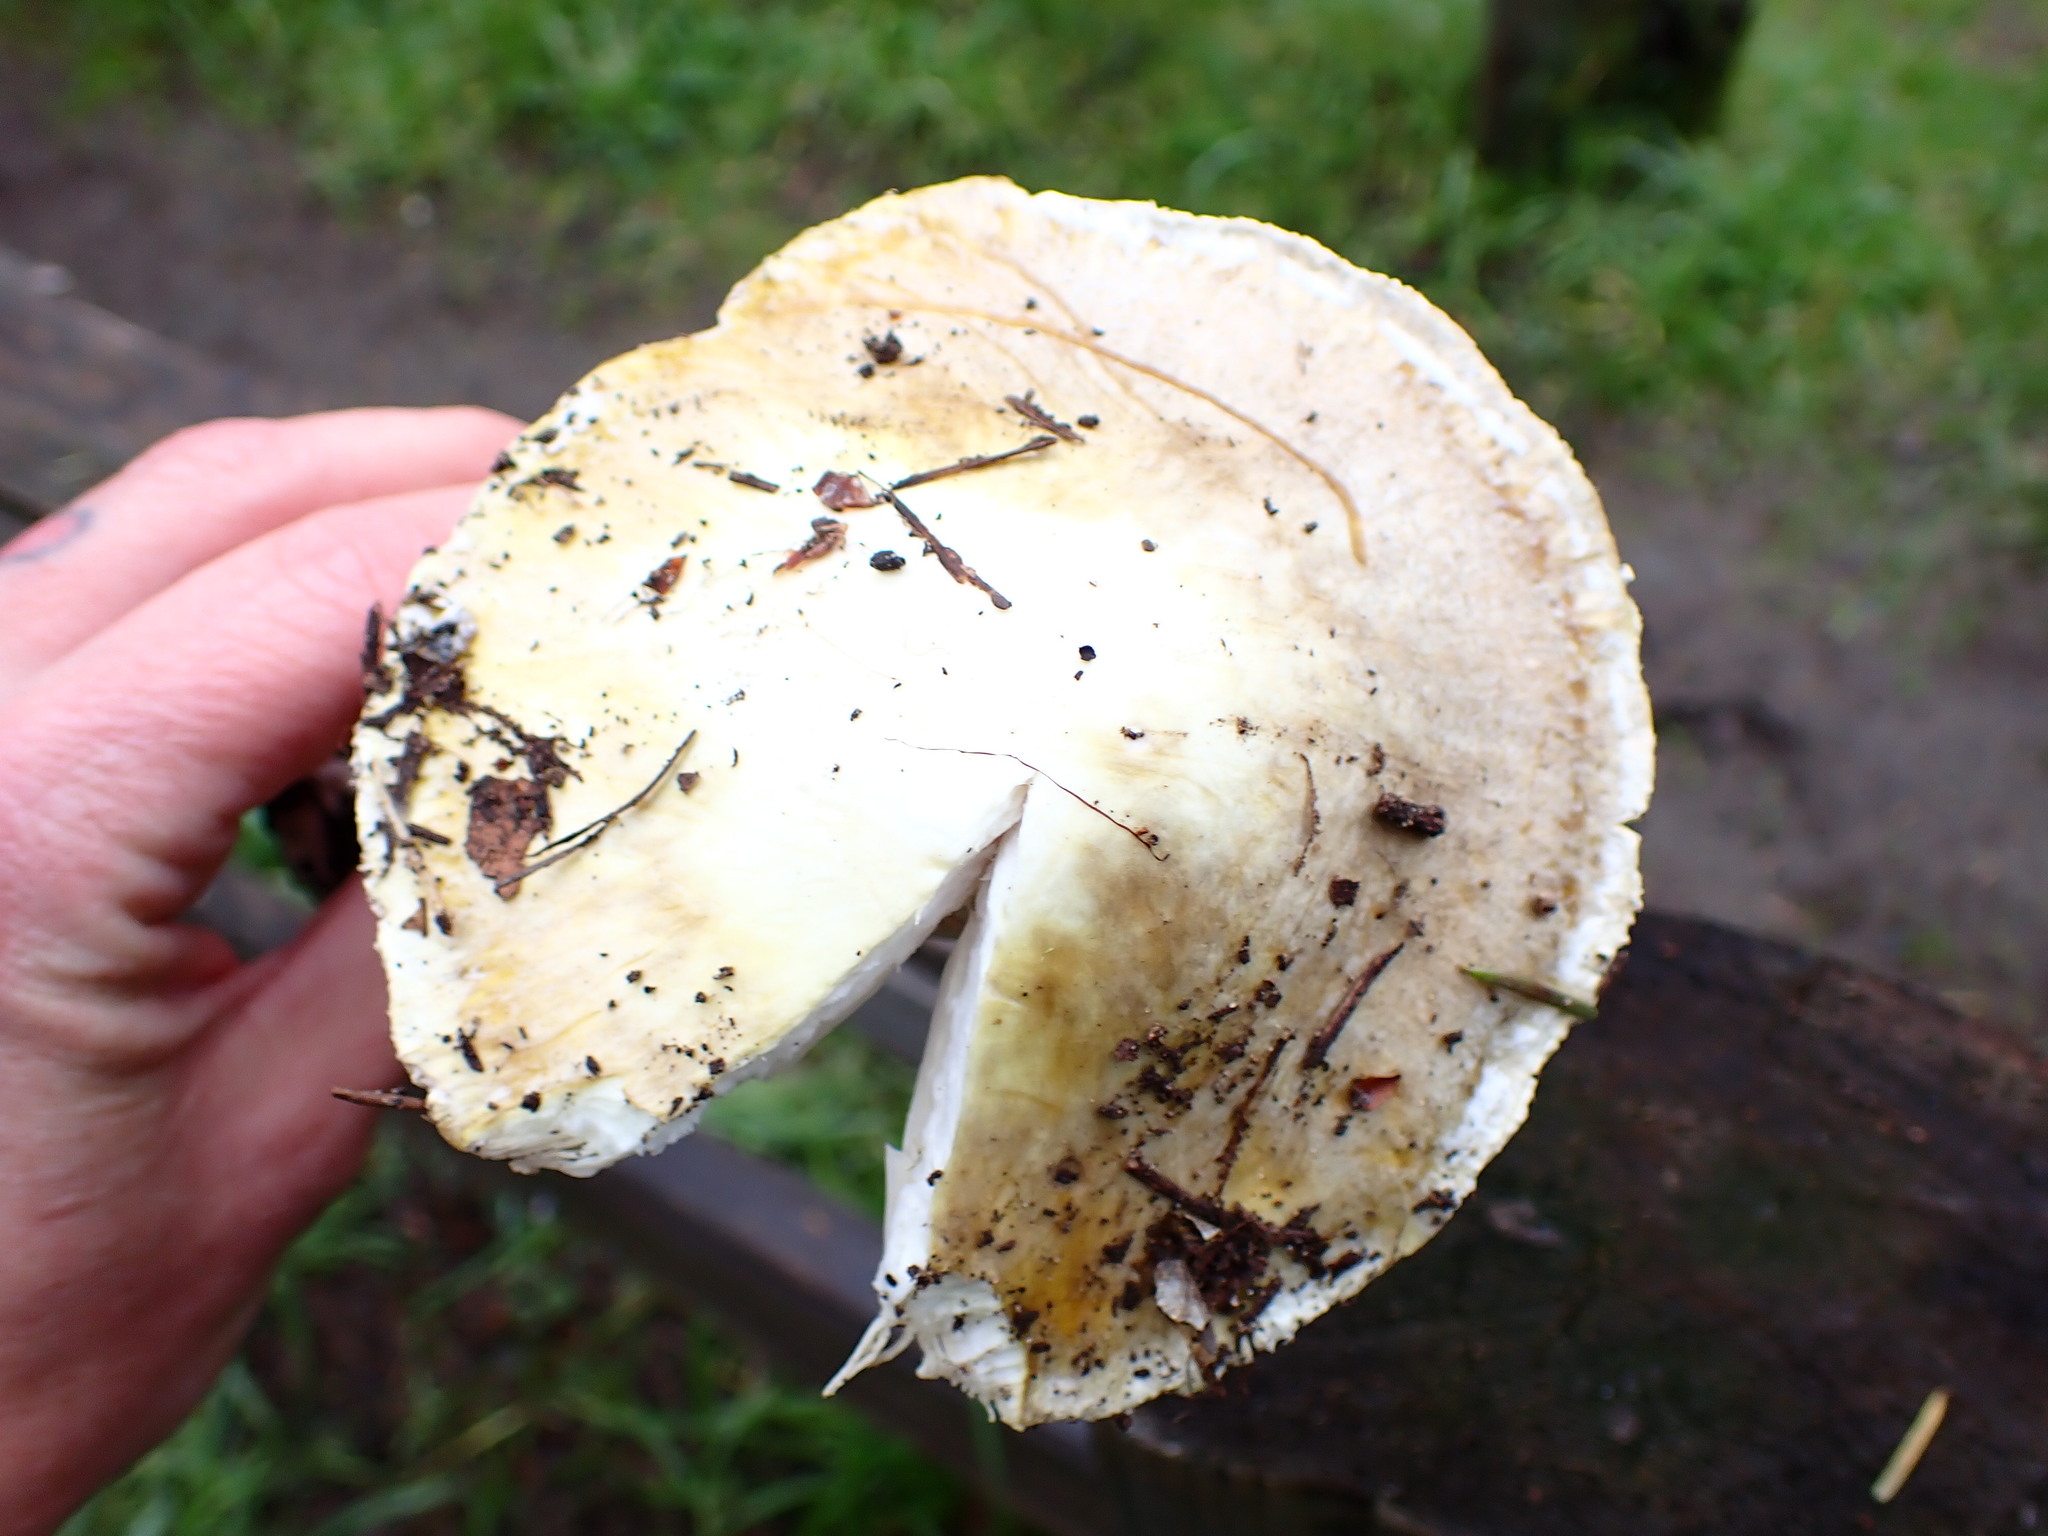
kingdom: Fungi
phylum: Basidiomycota
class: Agaricomycetes
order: Agaricales
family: Amanitaceae
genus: Amanita
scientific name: Amanita phalloides
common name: Death cap
